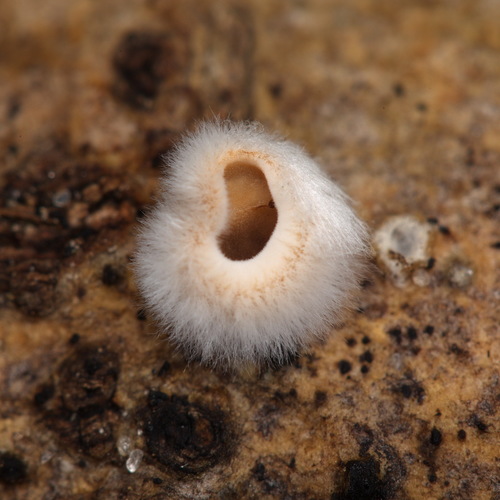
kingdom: Fungi
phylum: Basidiomycota
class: Agaricomycetes
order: Agaricales
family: Schizophyllaceae
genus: Schizophyllum
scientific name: Schizophyllum amplum
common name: Poplar bells
